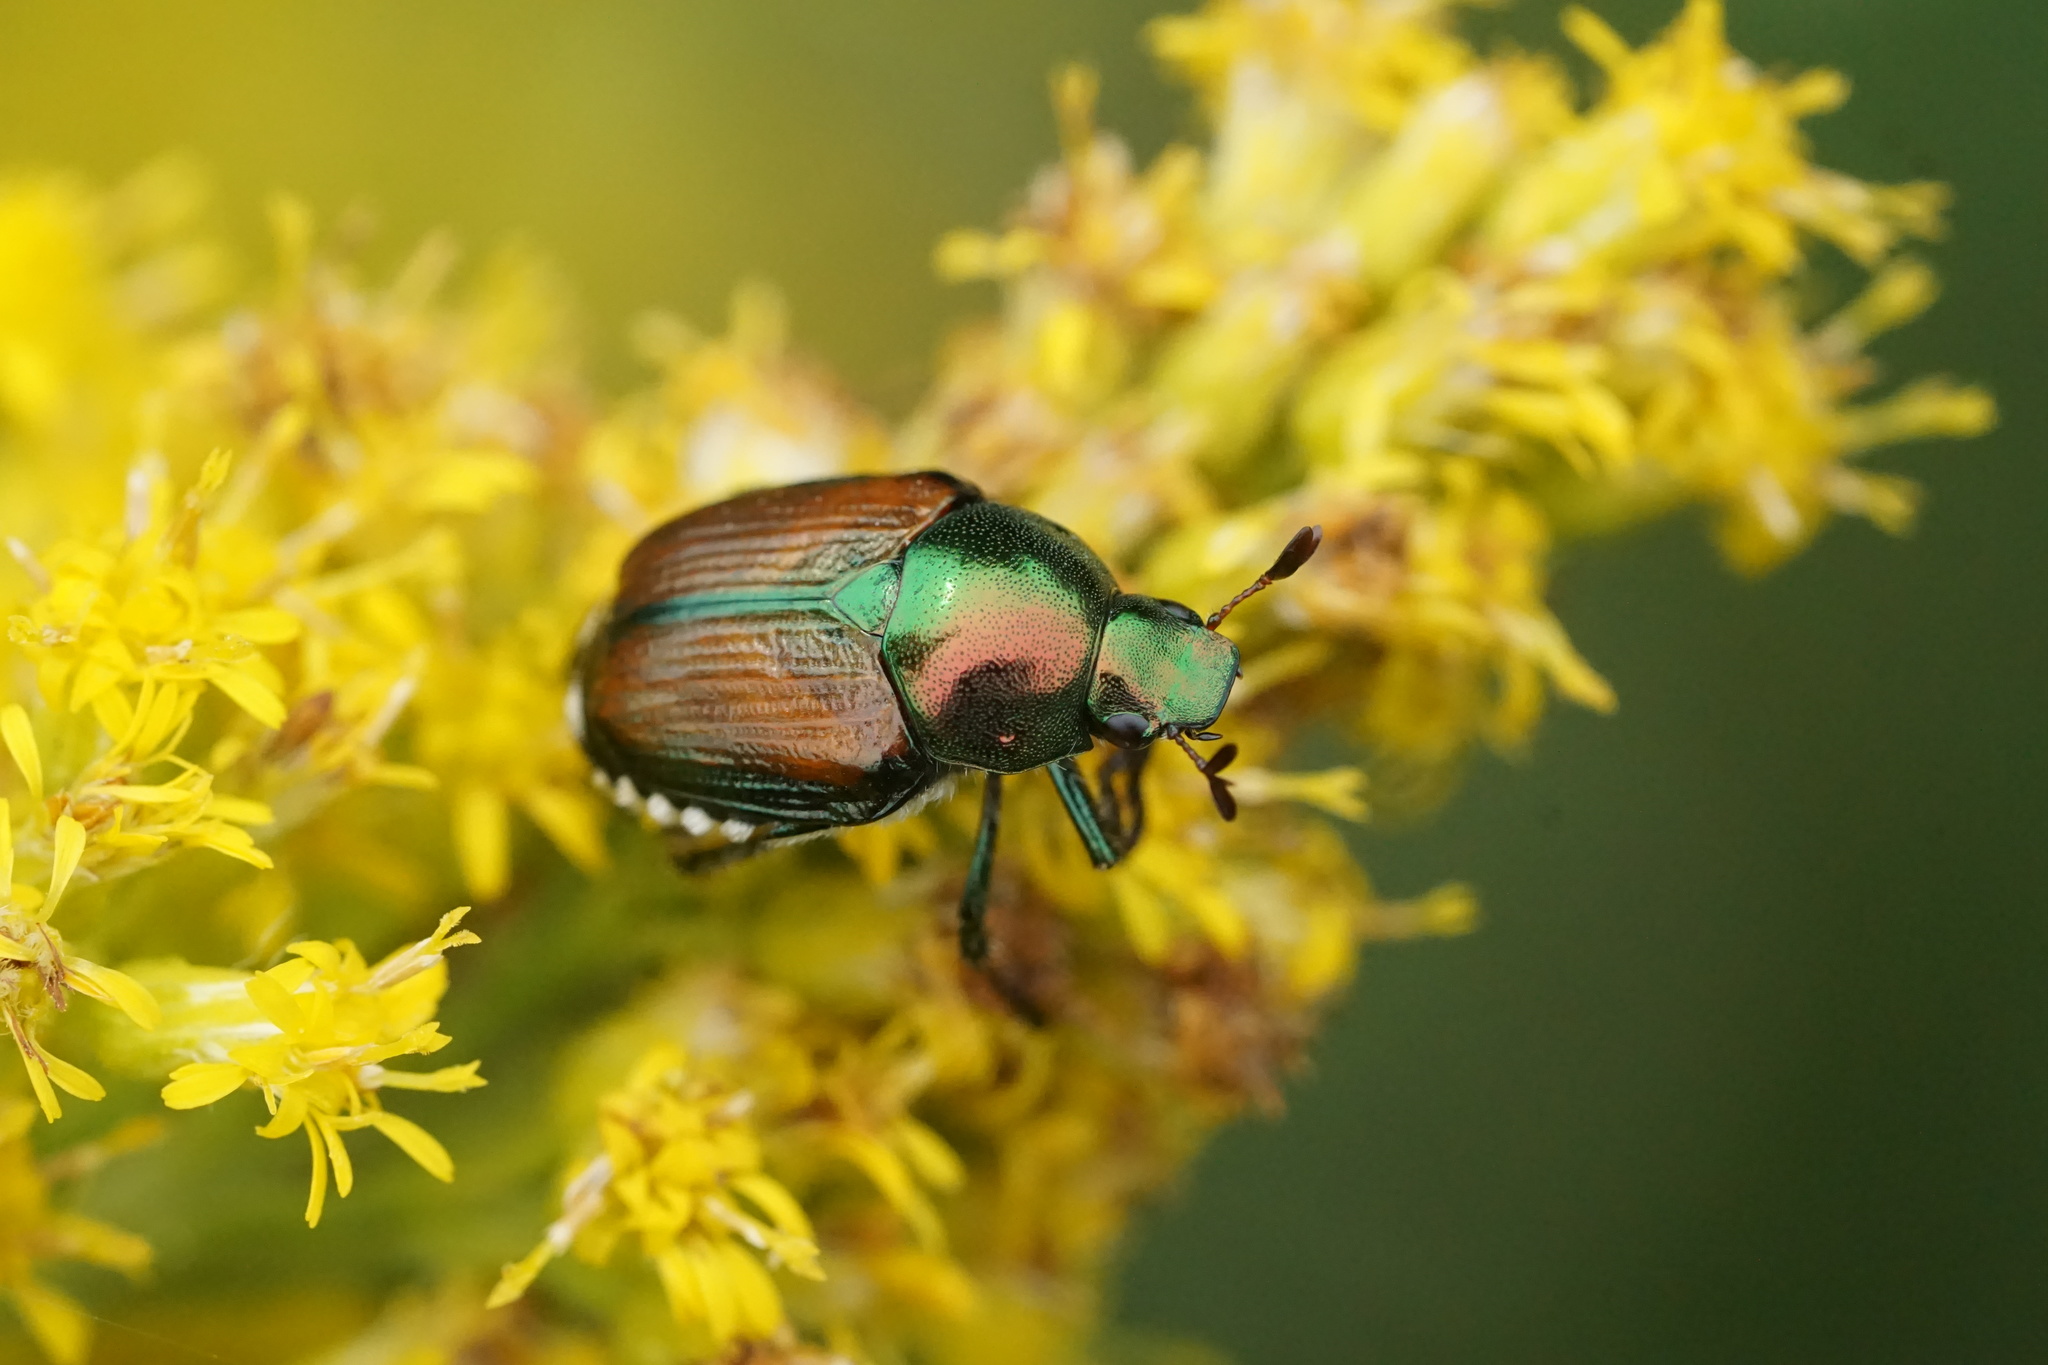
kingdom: Animalia
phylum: Arthropoda
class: Insecta
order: Coleoptera
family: Scarabaeidae
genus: Popillia
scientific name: Popillia japonica
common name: Japanese beetle
